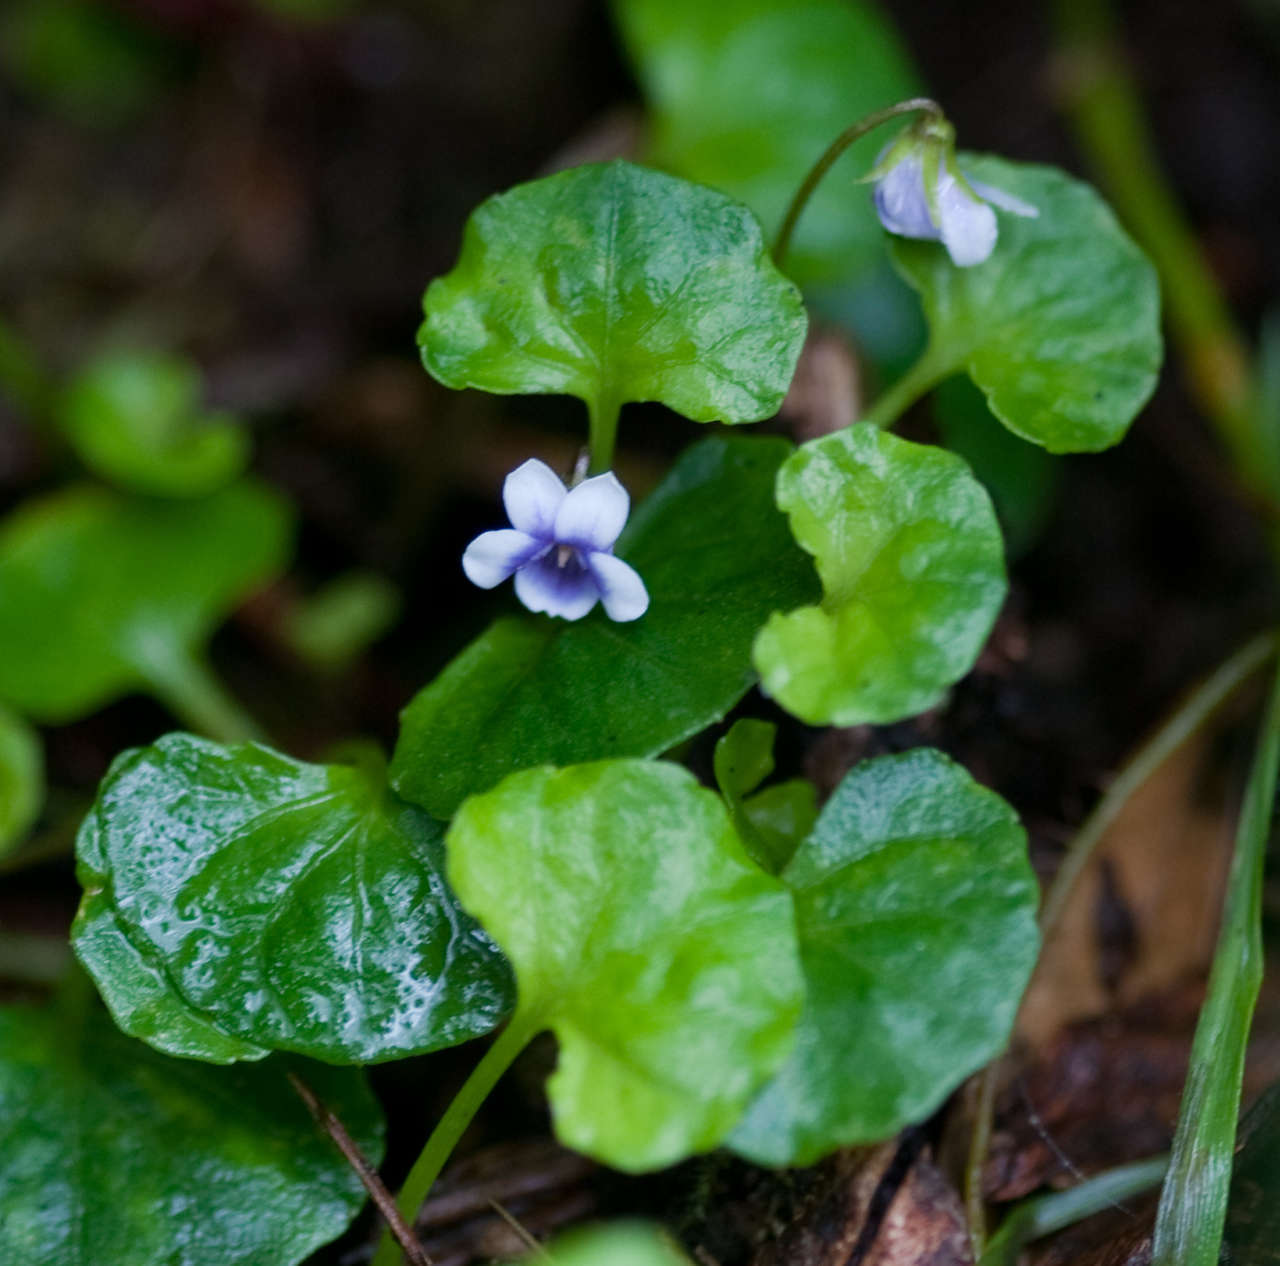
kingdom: Plantae
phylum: Tracheophyta
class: Magnoliopsida
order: Malpighiales
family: Violaceae
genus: Viola
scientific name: Viola hederacea
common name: Australian violet
